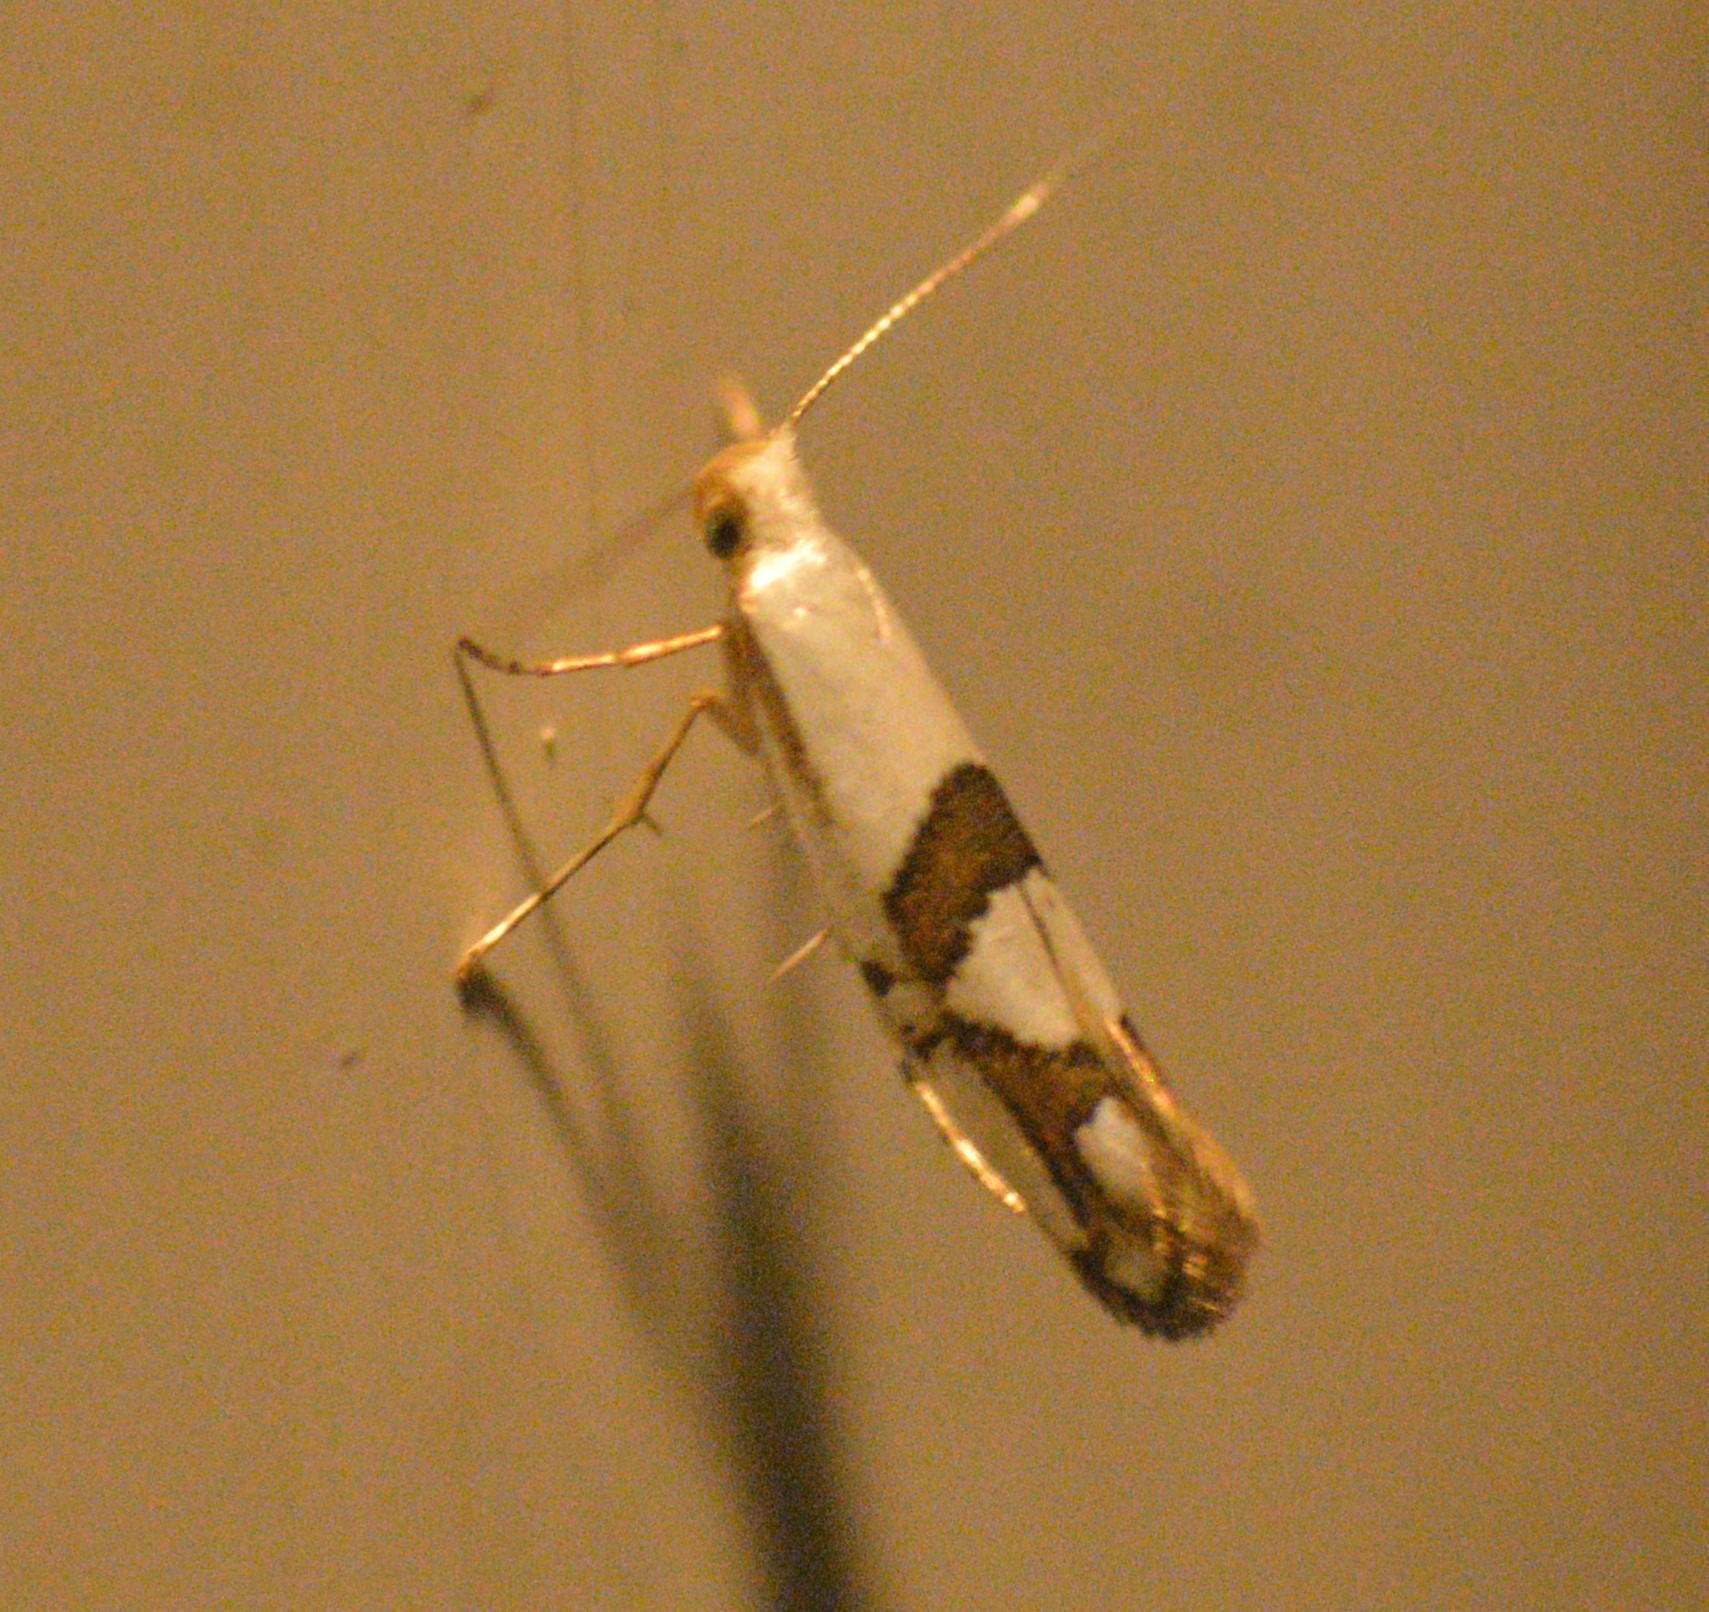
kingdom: Animalia
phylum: Arthropoda
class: Insecta
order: Lepidoptera
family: Argyresthiidae
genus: Argyresthia
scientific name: Argyresthia oreasella
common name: Cherry shoot borer moth
